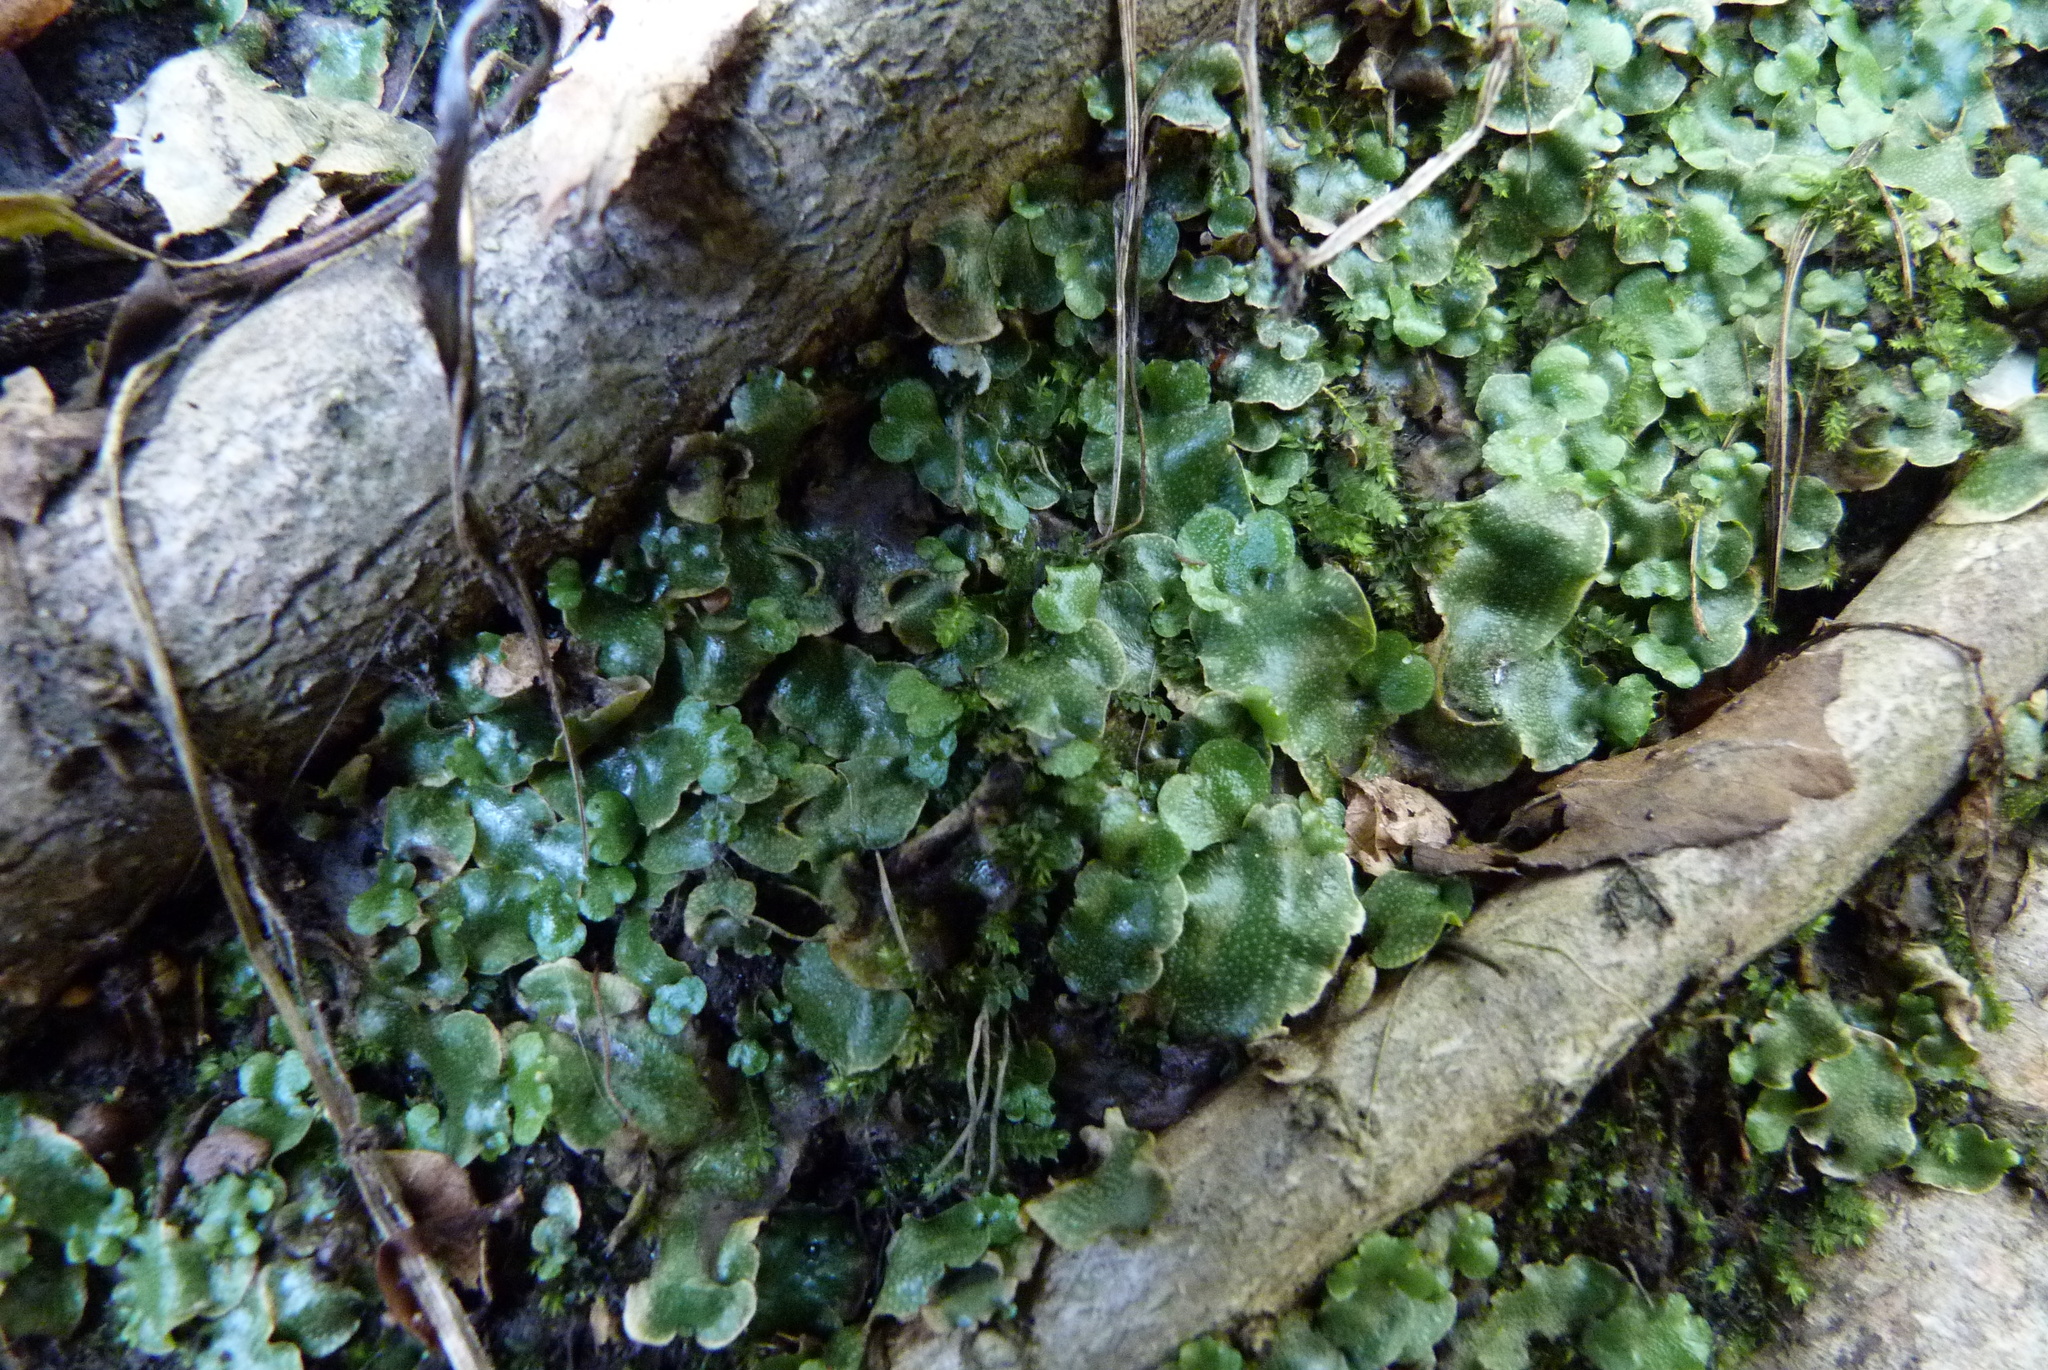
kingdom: Plantae
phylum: Marchantiophyta
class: Marchantiopsida
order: Lunulariales
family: Lunulariaceae
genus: Lunularia
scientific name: Lunularia cruciata
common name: Crescent-cup liverwort
